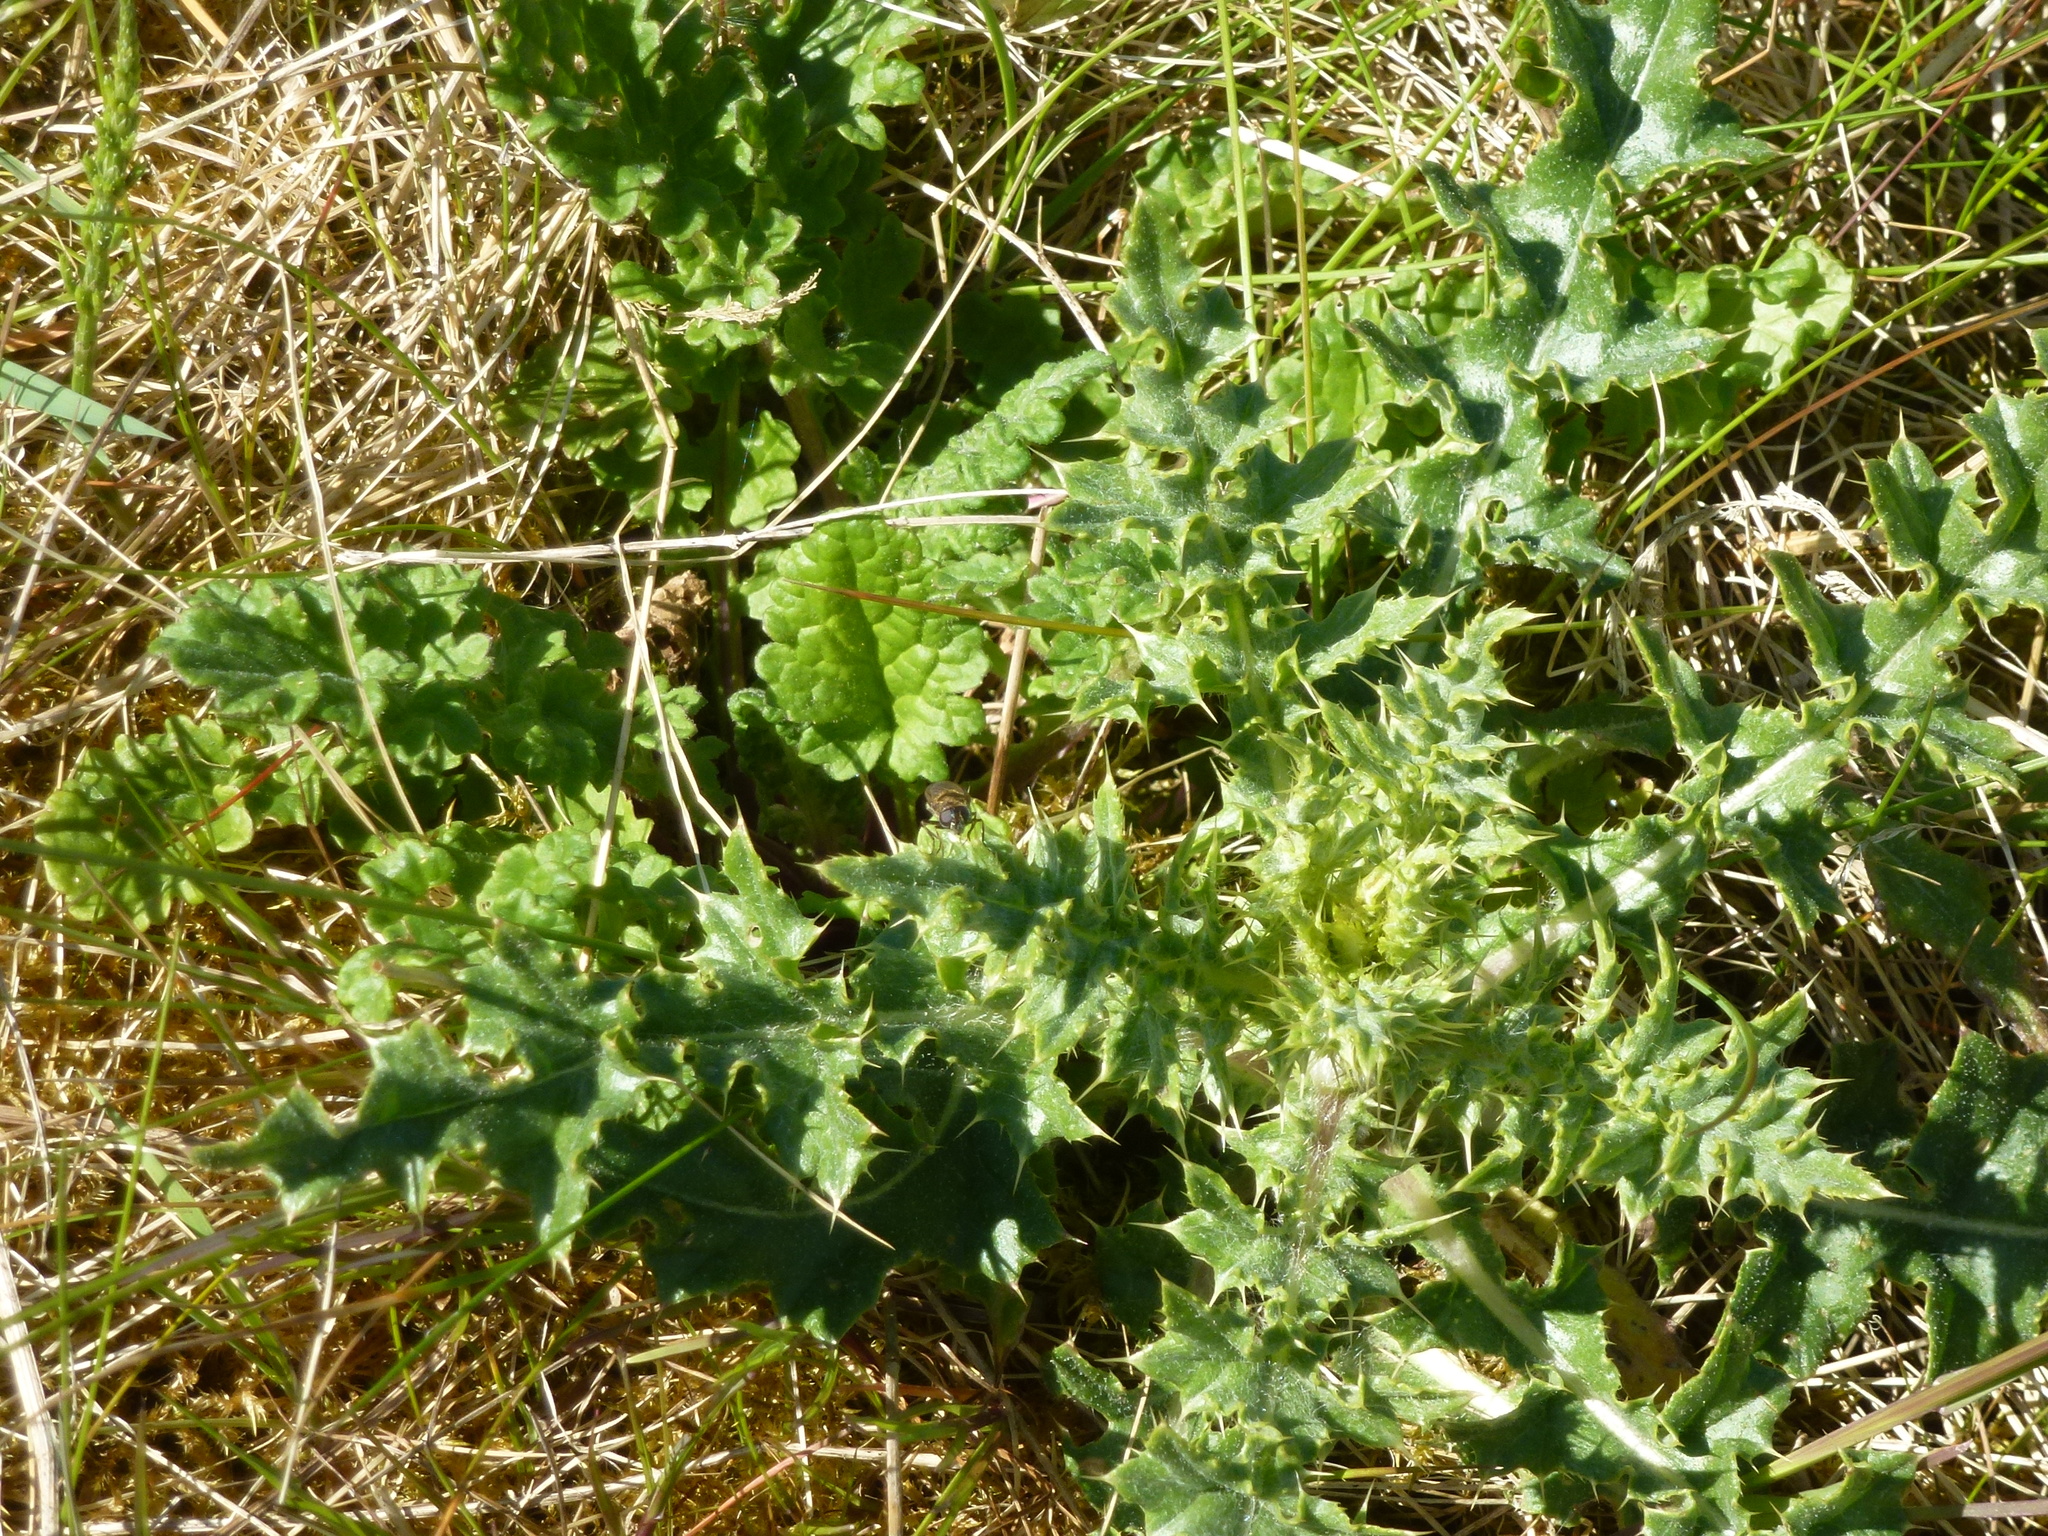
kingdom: Plantae
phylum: Tracheophyta
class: Magnoliopsida
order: Asterales
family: Asteraceae
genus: Cirsium
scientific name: Cirsium arvense
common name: Creeping thistle
